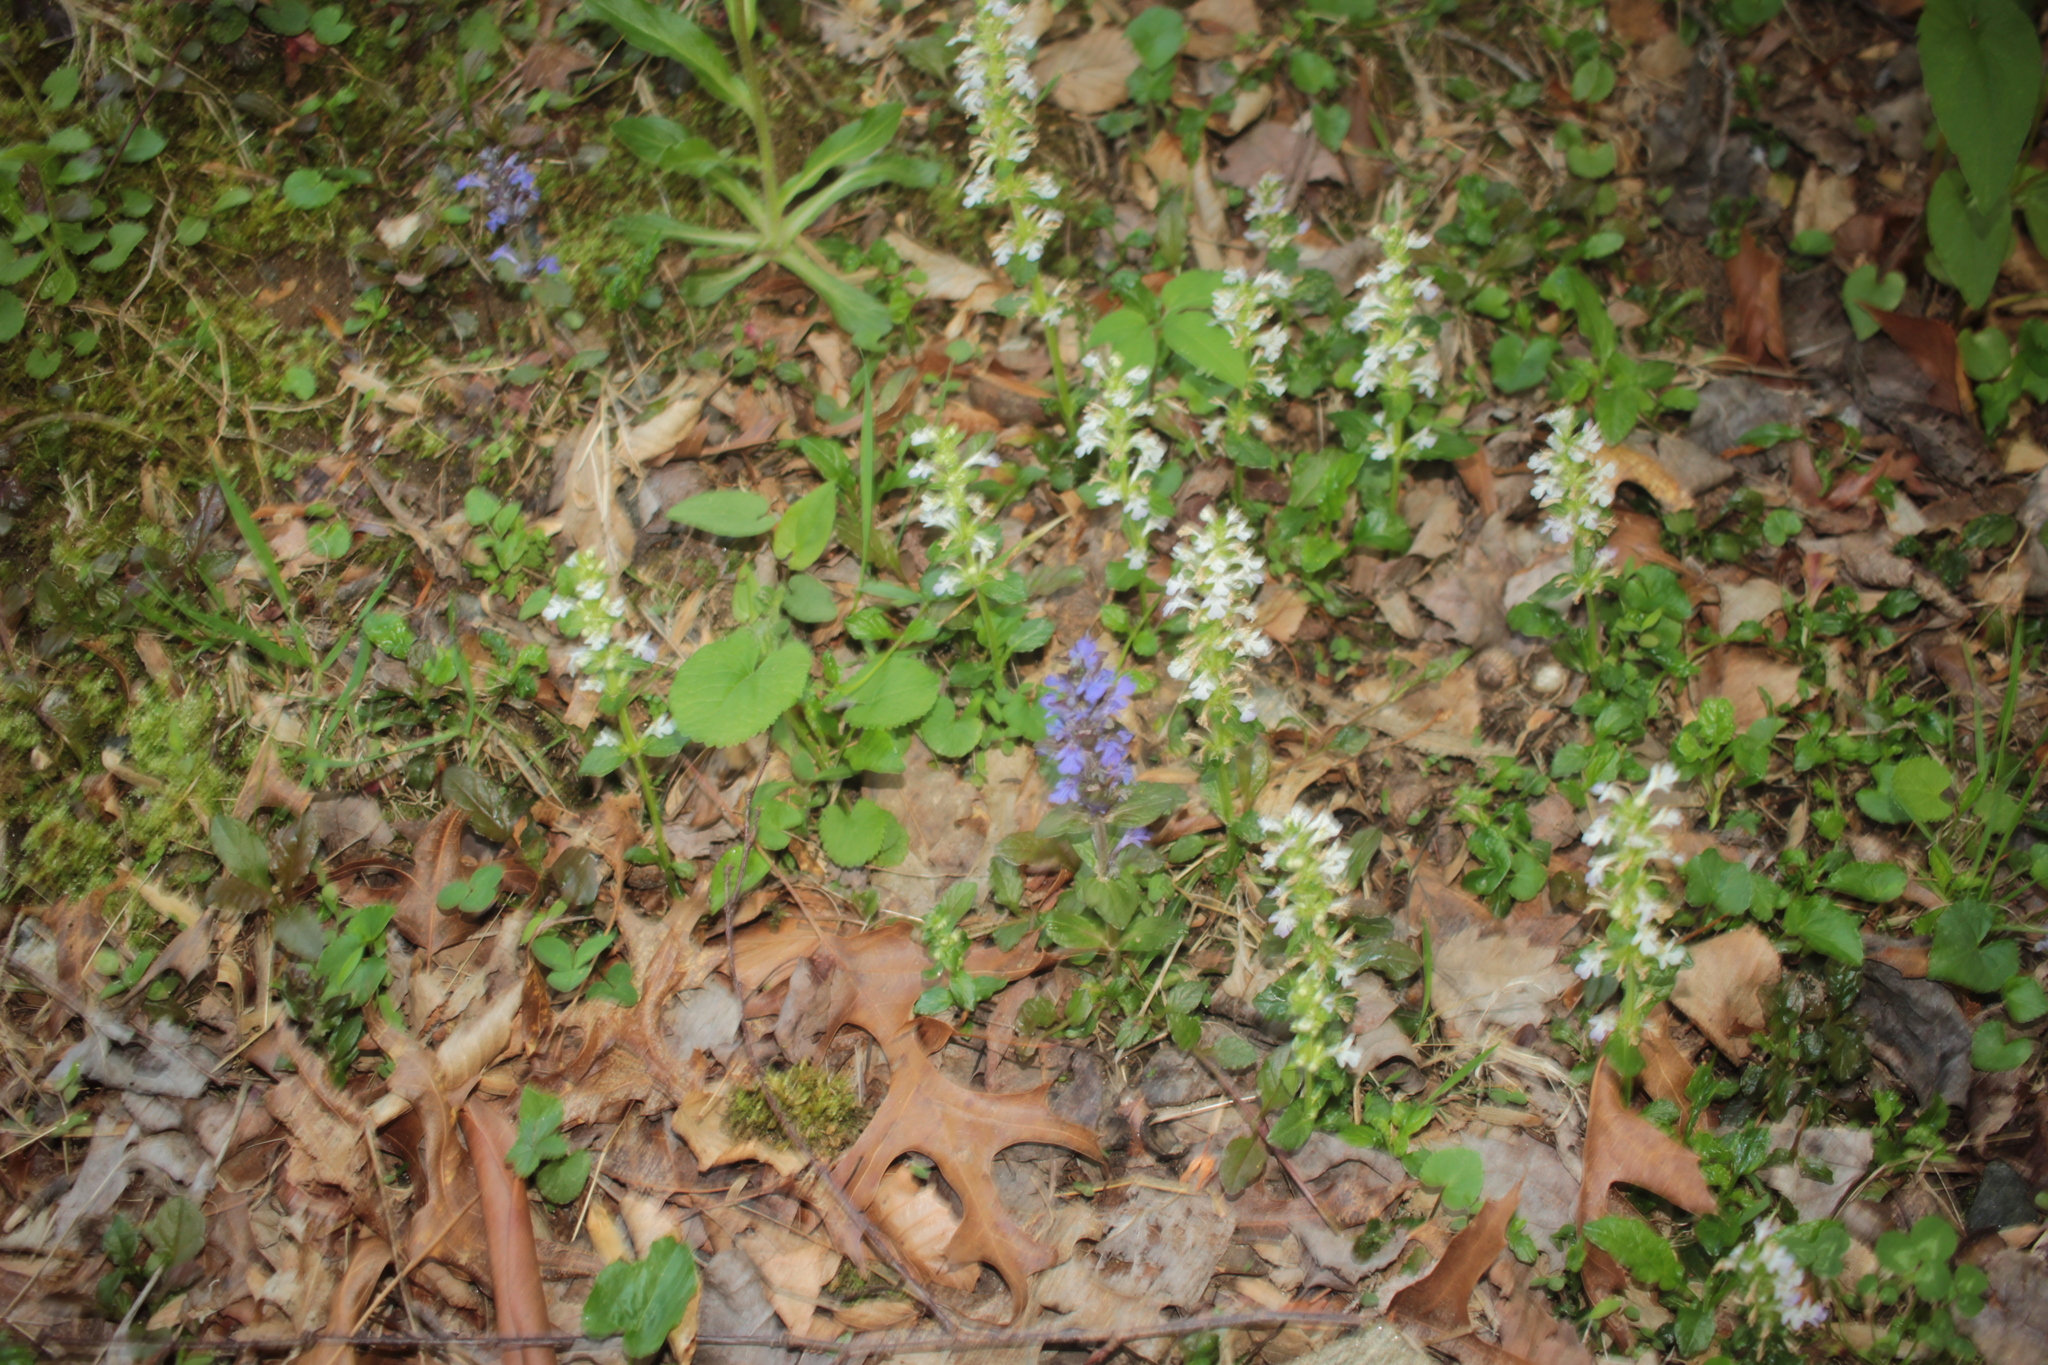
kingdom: Plantae
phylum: Tracheophyta
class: Magnoliopsida
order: Lamiales
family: Lamiaceae
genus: Ajuga
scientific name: Ajuga reptans
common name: Bugle
